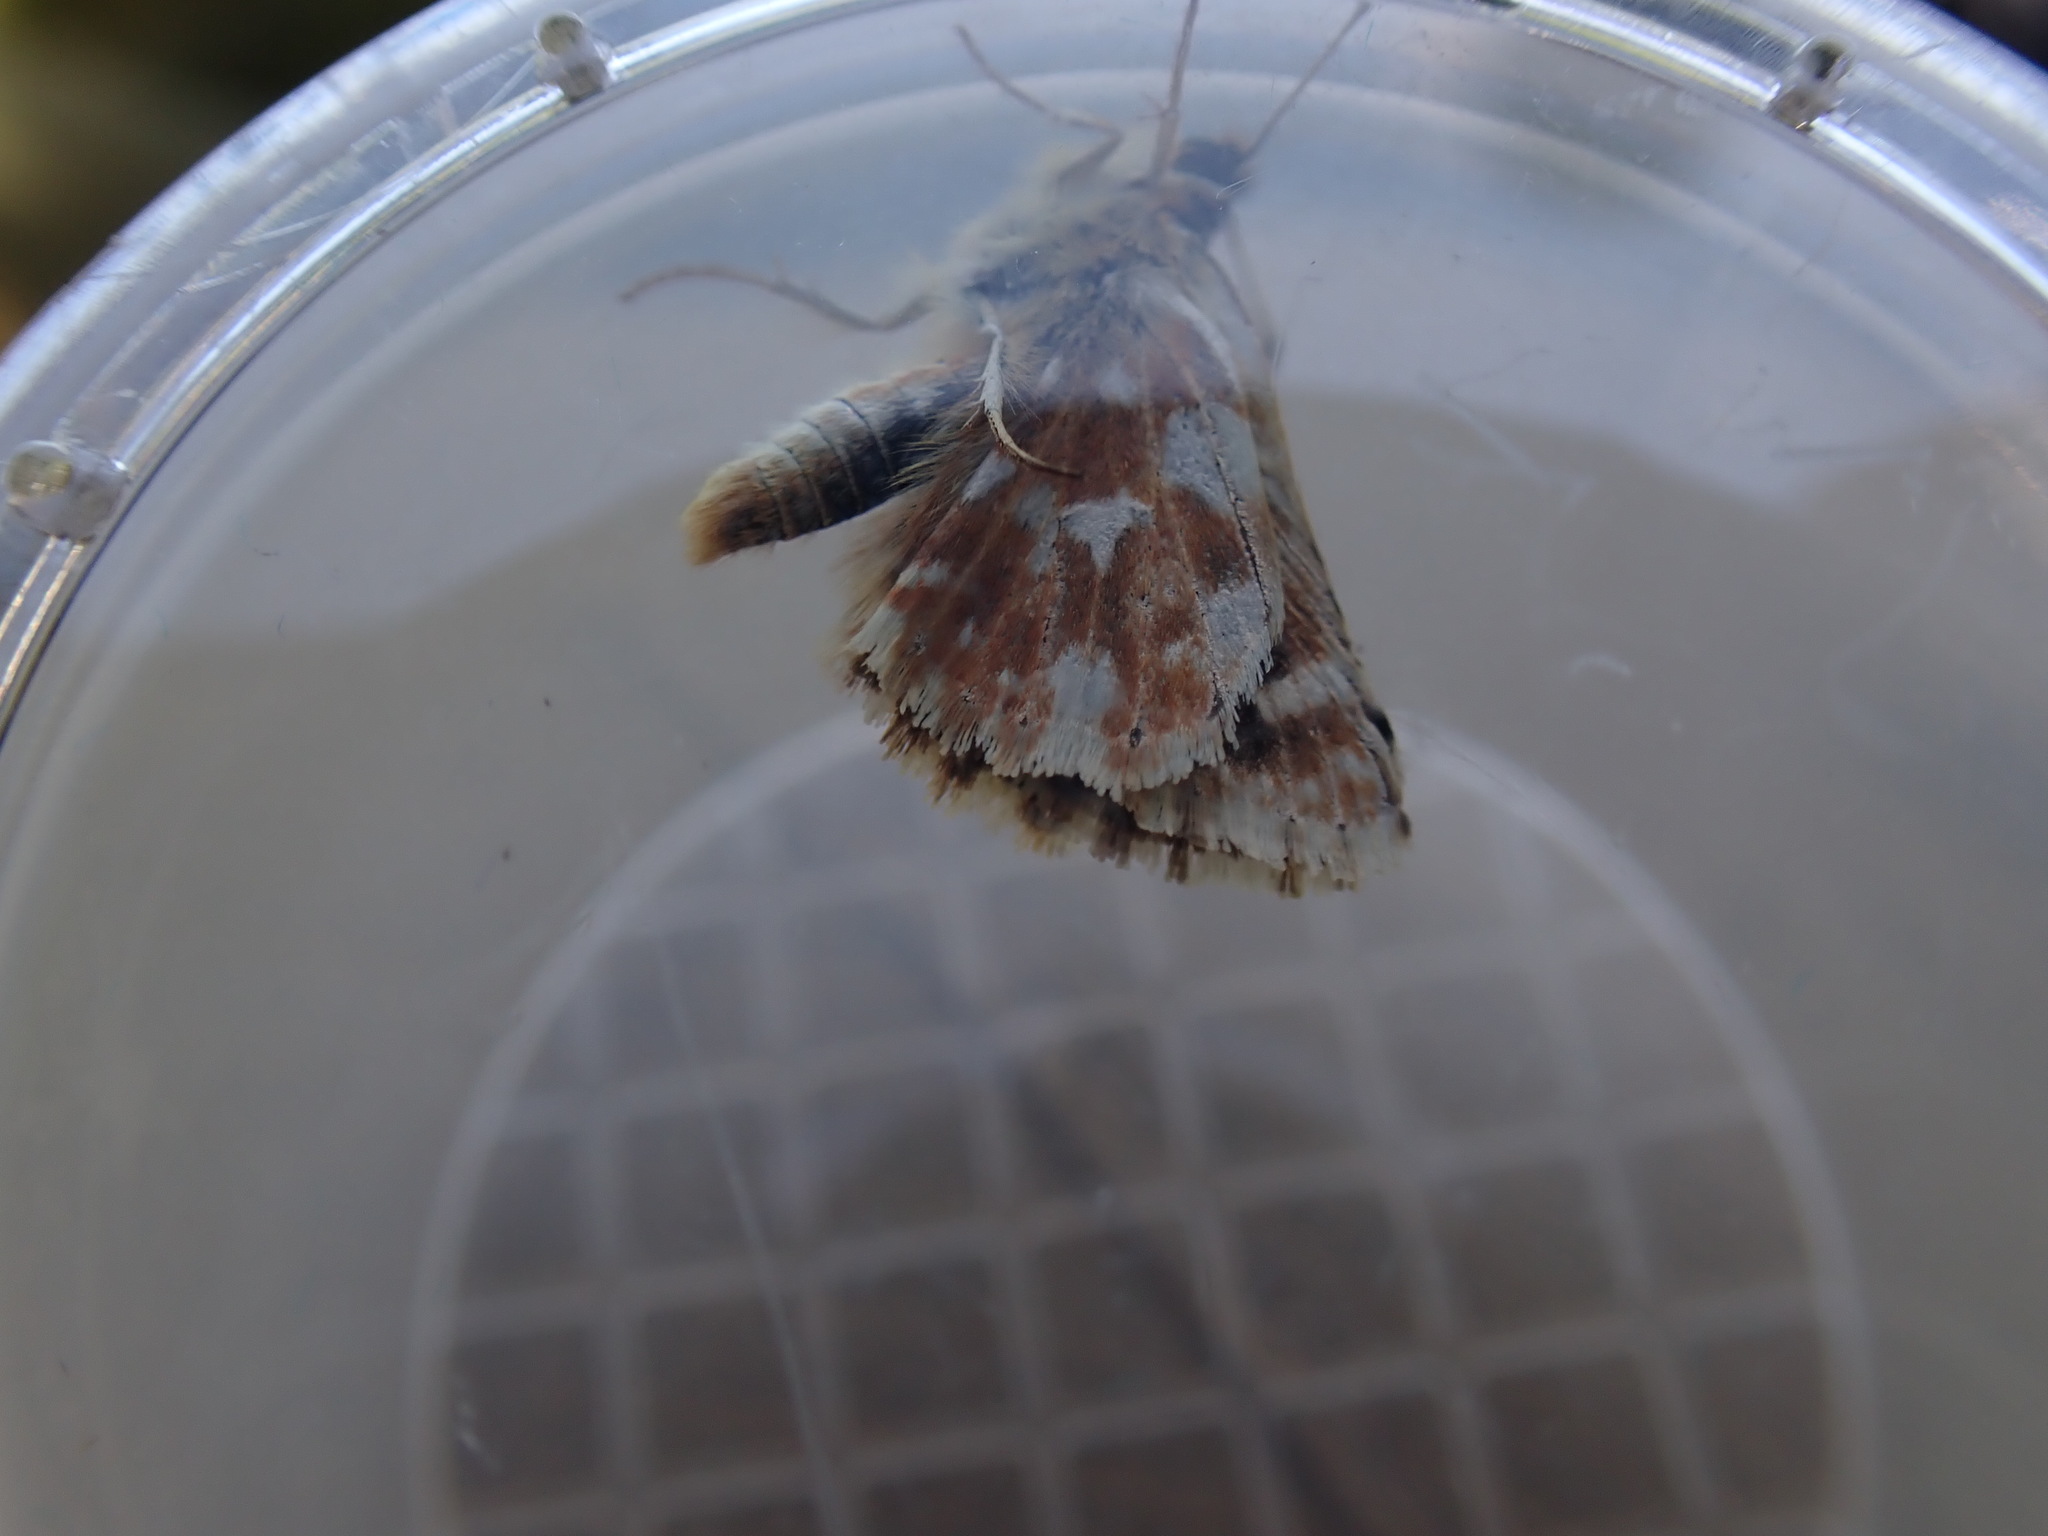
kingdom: Animalia
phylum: Arthropoda
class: Insecta
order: Lepidoptera
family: Hesperiidae
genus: Spialia
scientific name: Spialia sertorius
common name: Red underwing skipper
